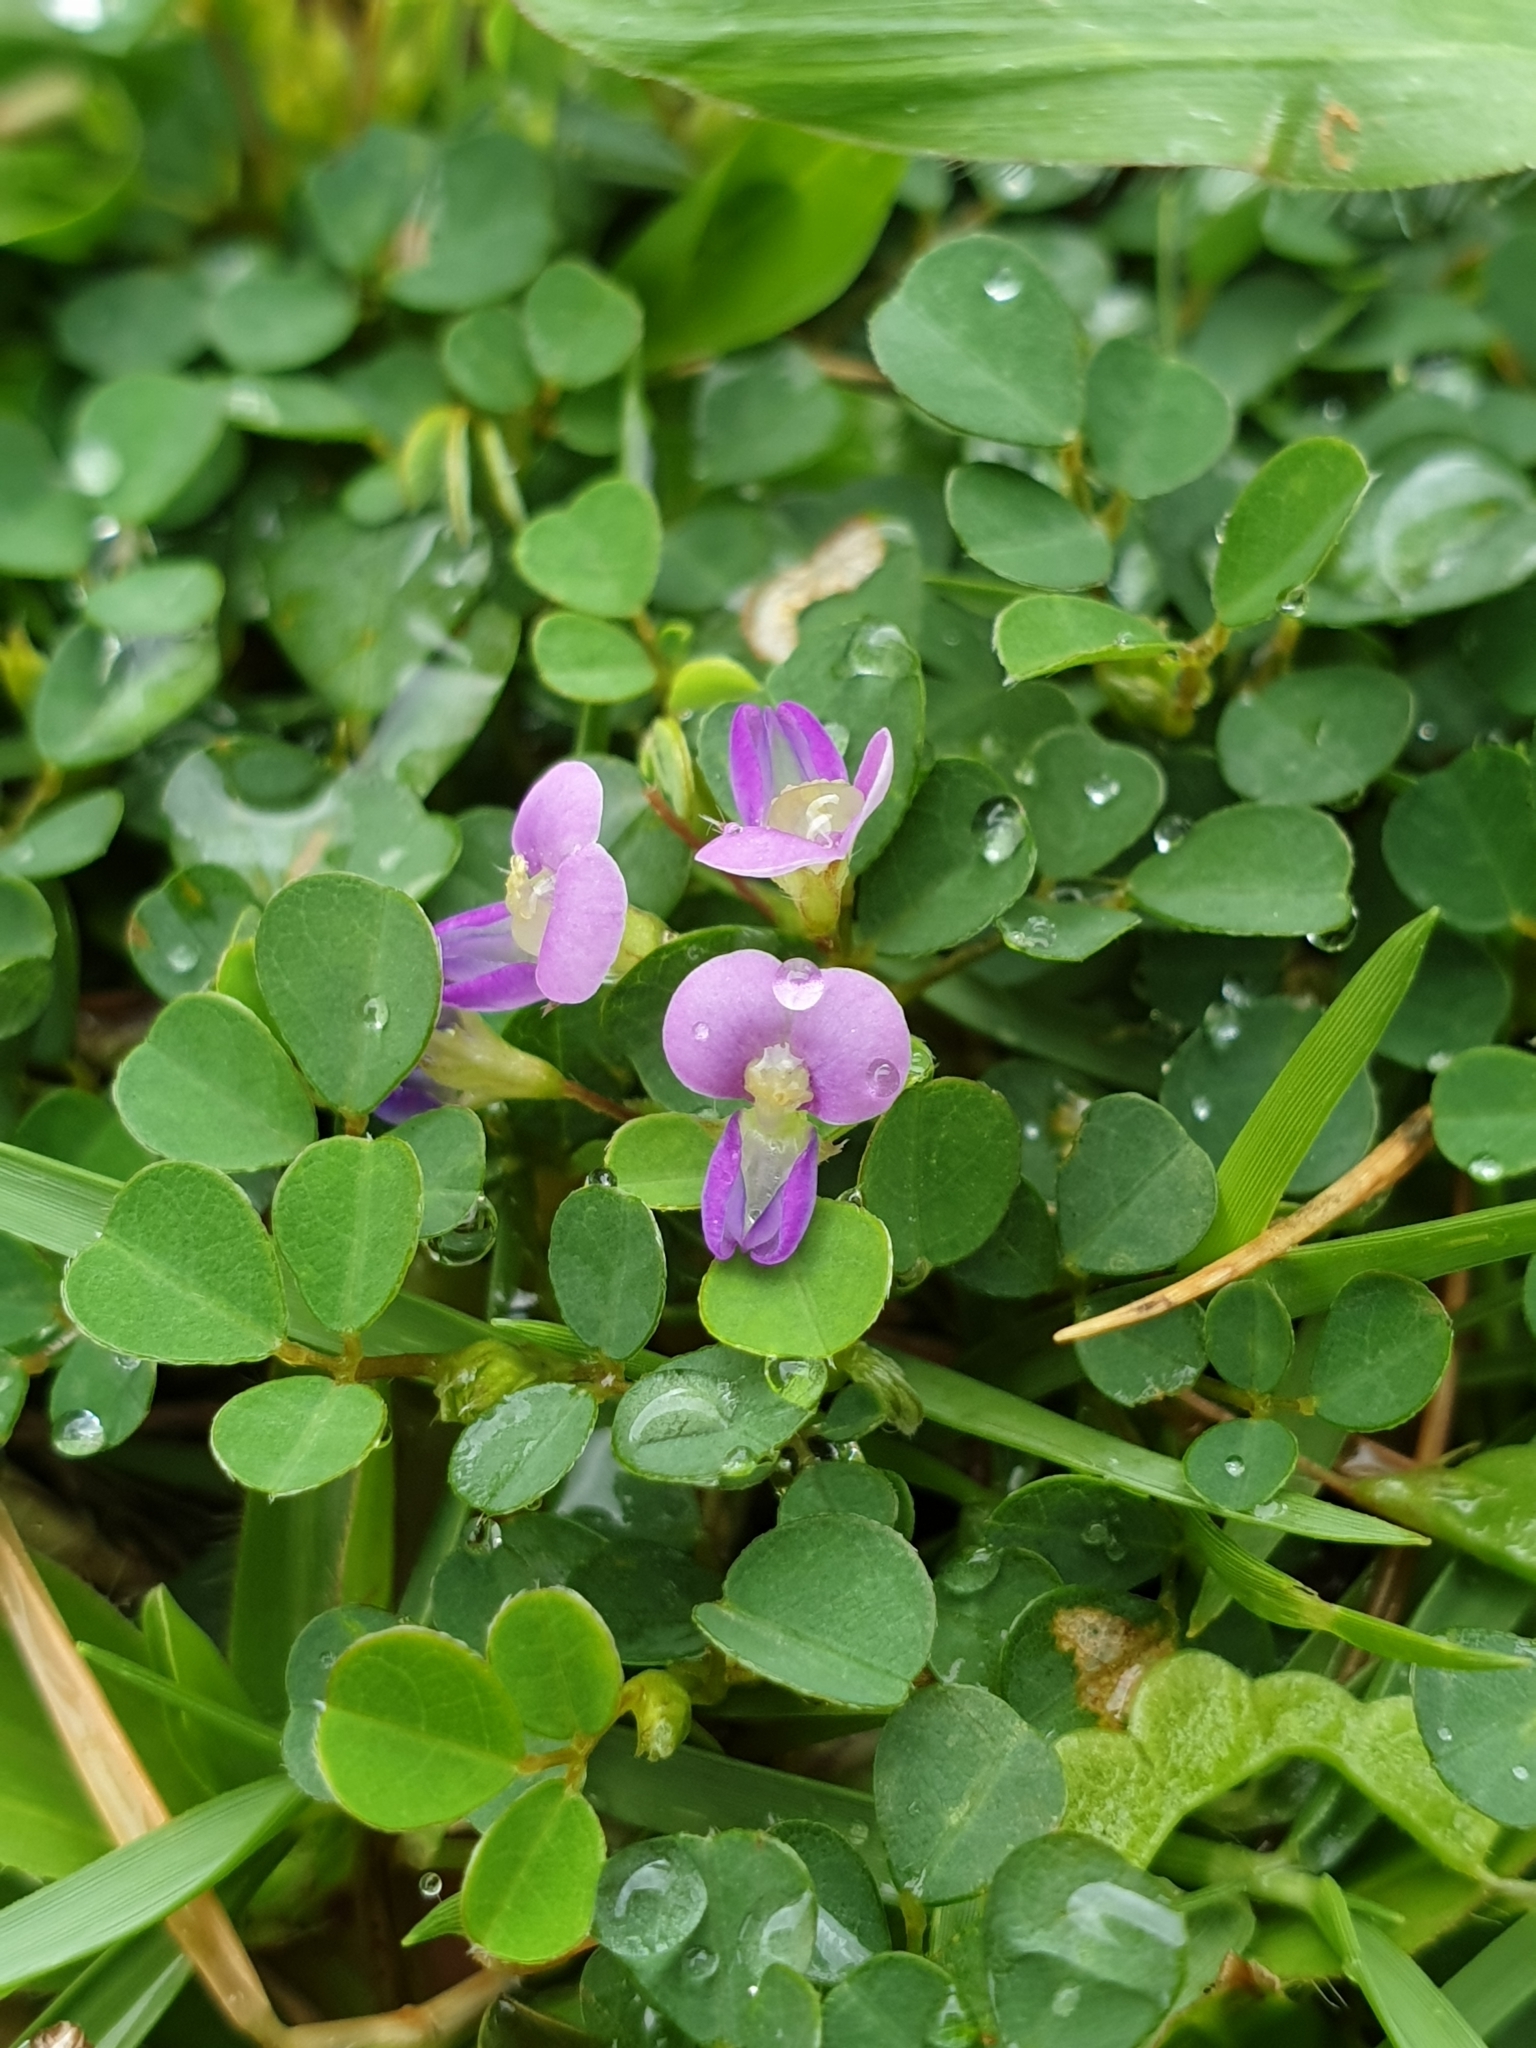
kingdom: Plantae
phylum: Tracheophyta
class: Magnoliopsida
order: Fabales
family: Fabaceae
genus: Grona
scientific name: Grona triflora
